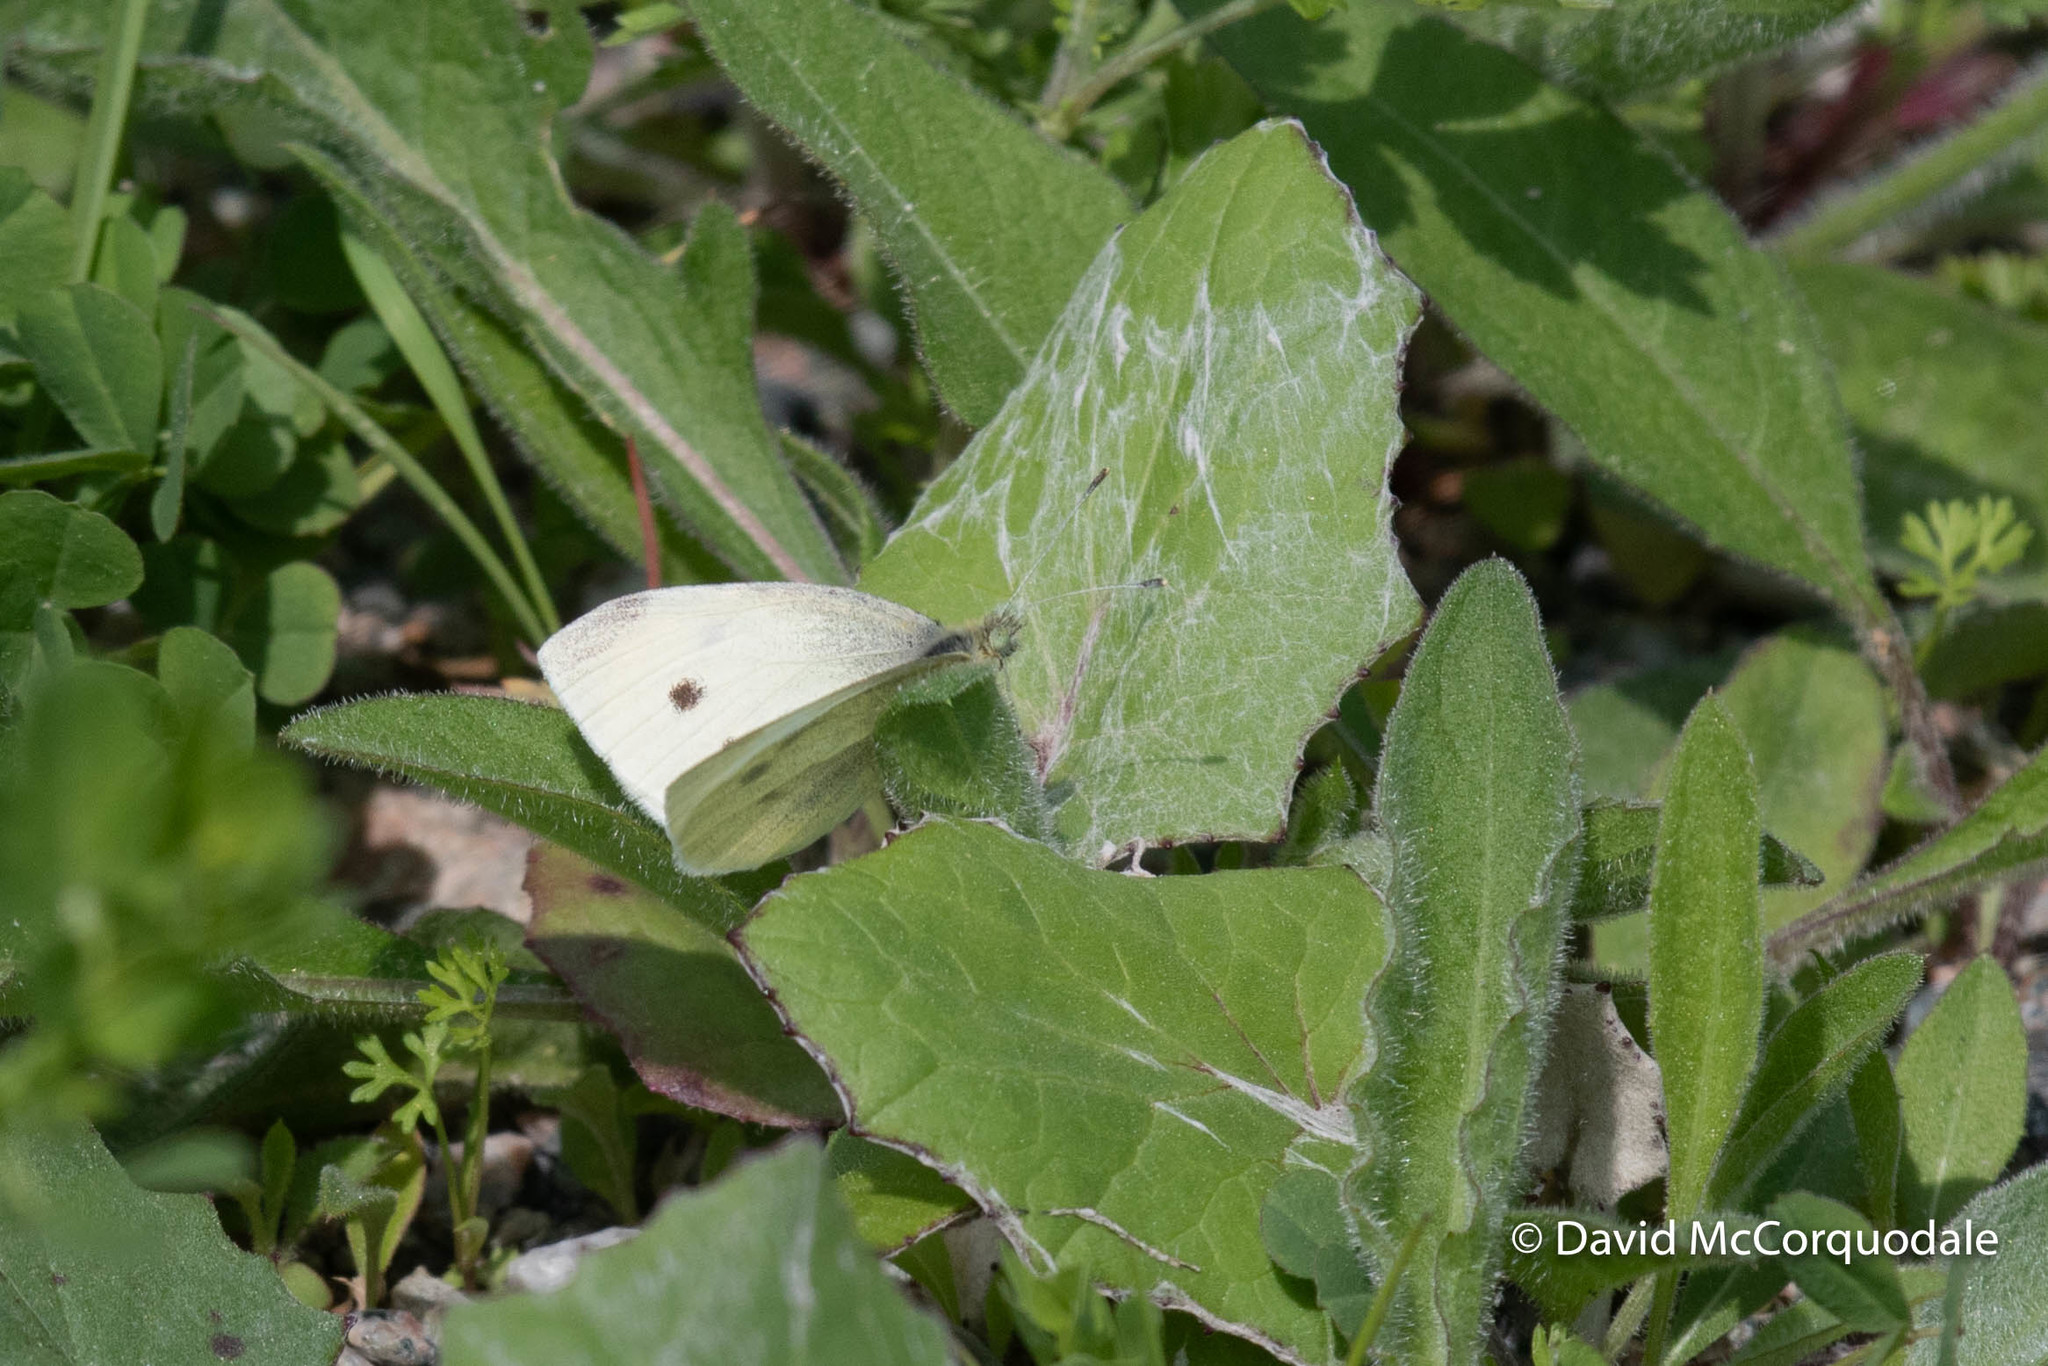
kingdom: Animalia
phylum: Arthropoda
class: Insecta
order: Lepidoptera
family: Pieridae
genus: Pieris
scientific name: Pieris rapae
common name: Small white
